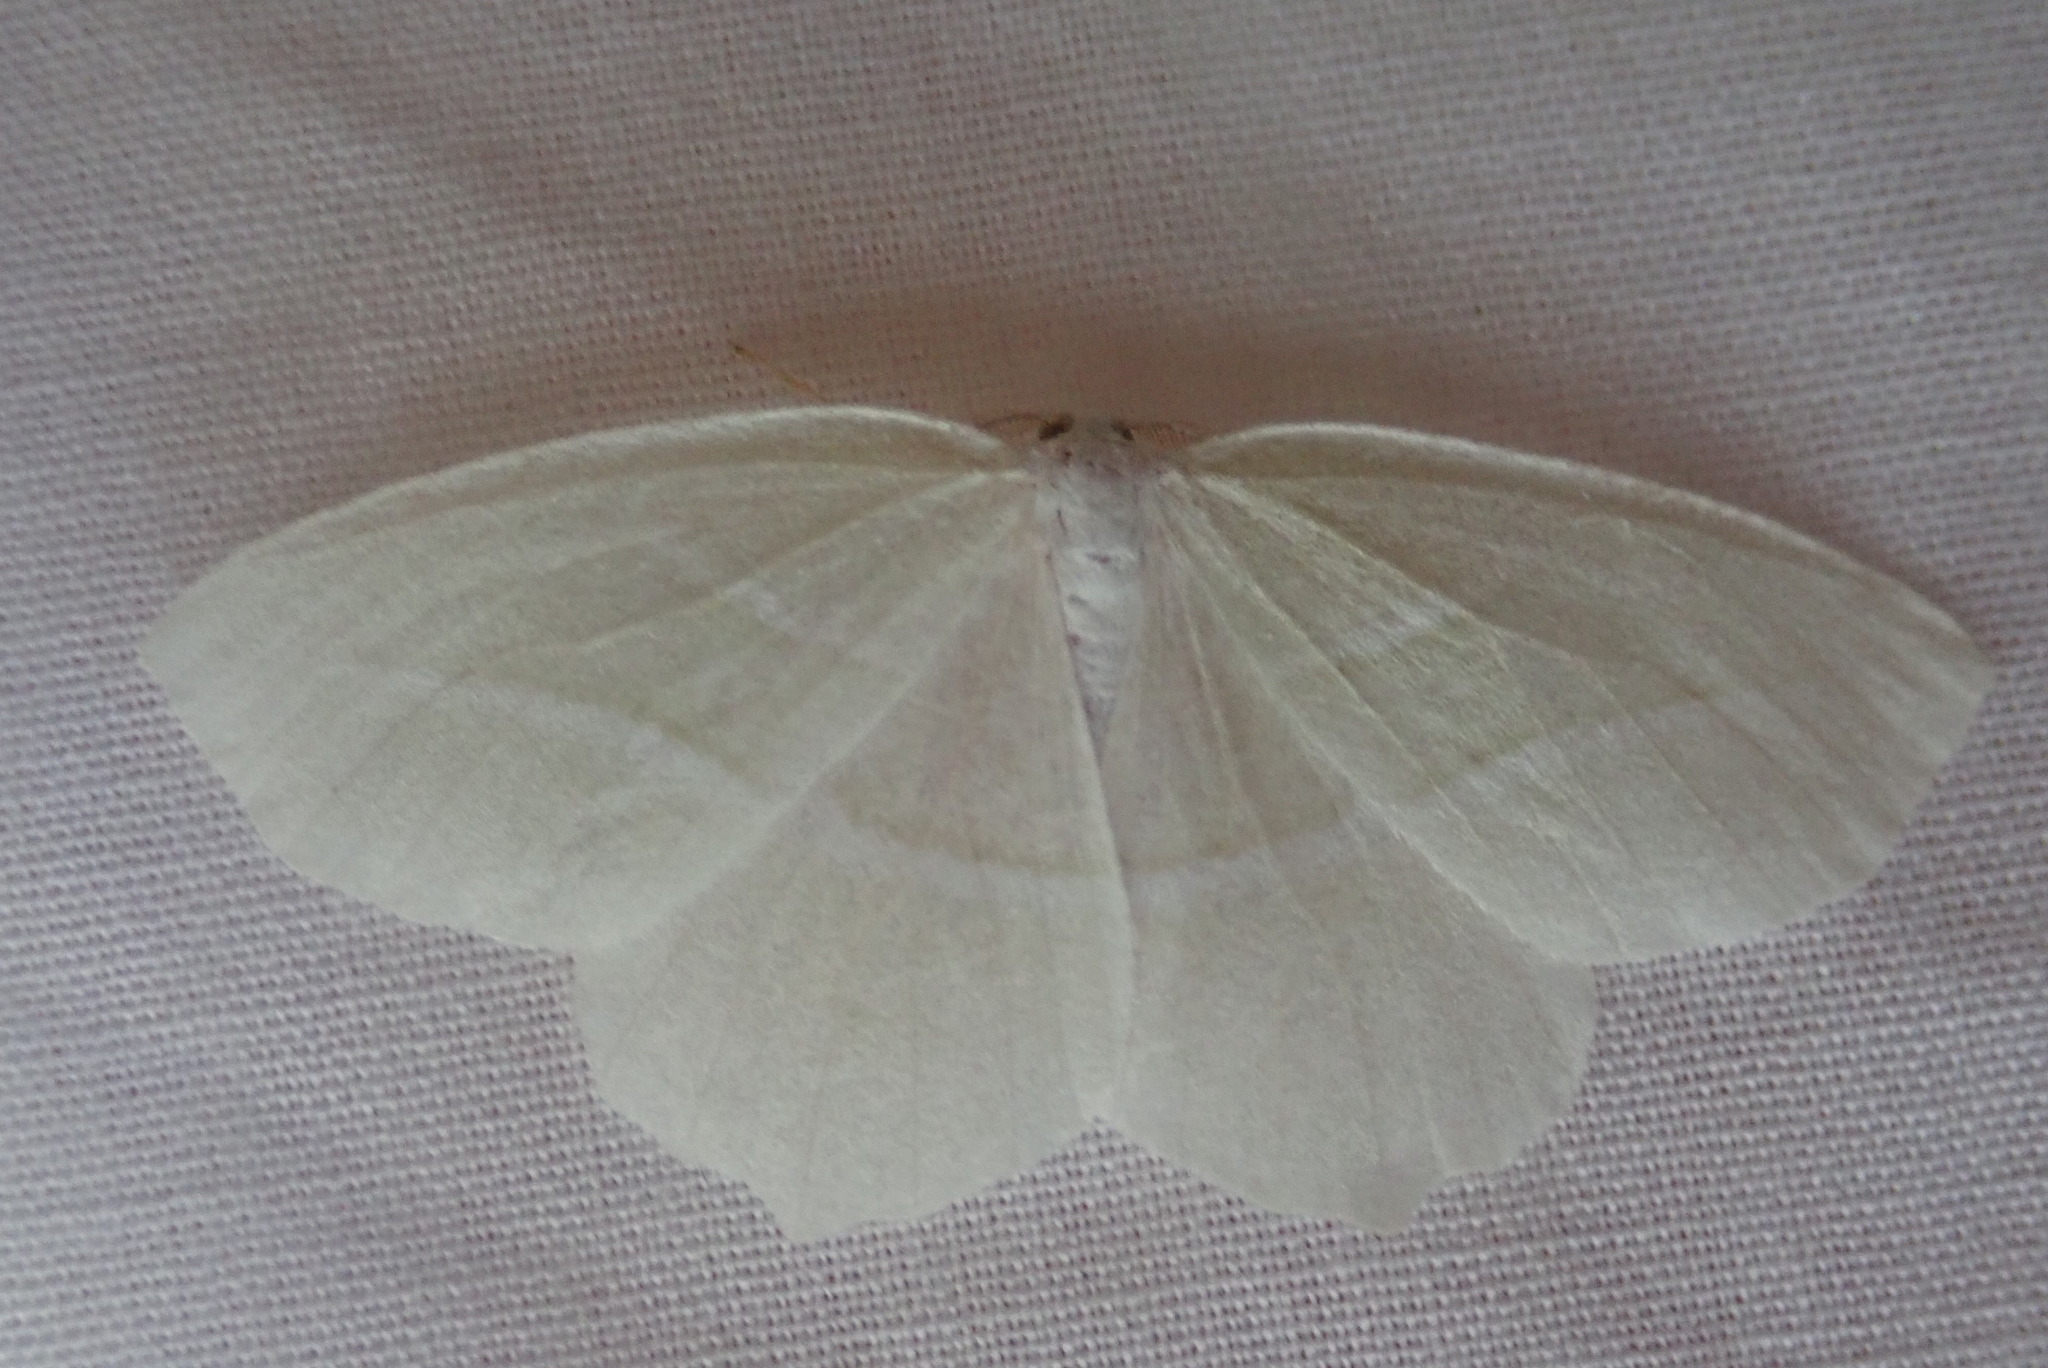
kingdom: Animalia
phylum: Arthropoda
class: Insecta
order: Lepidoptera
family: Geometridae
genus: Campaea
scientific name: Campaea perlata
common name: Fringed looper
